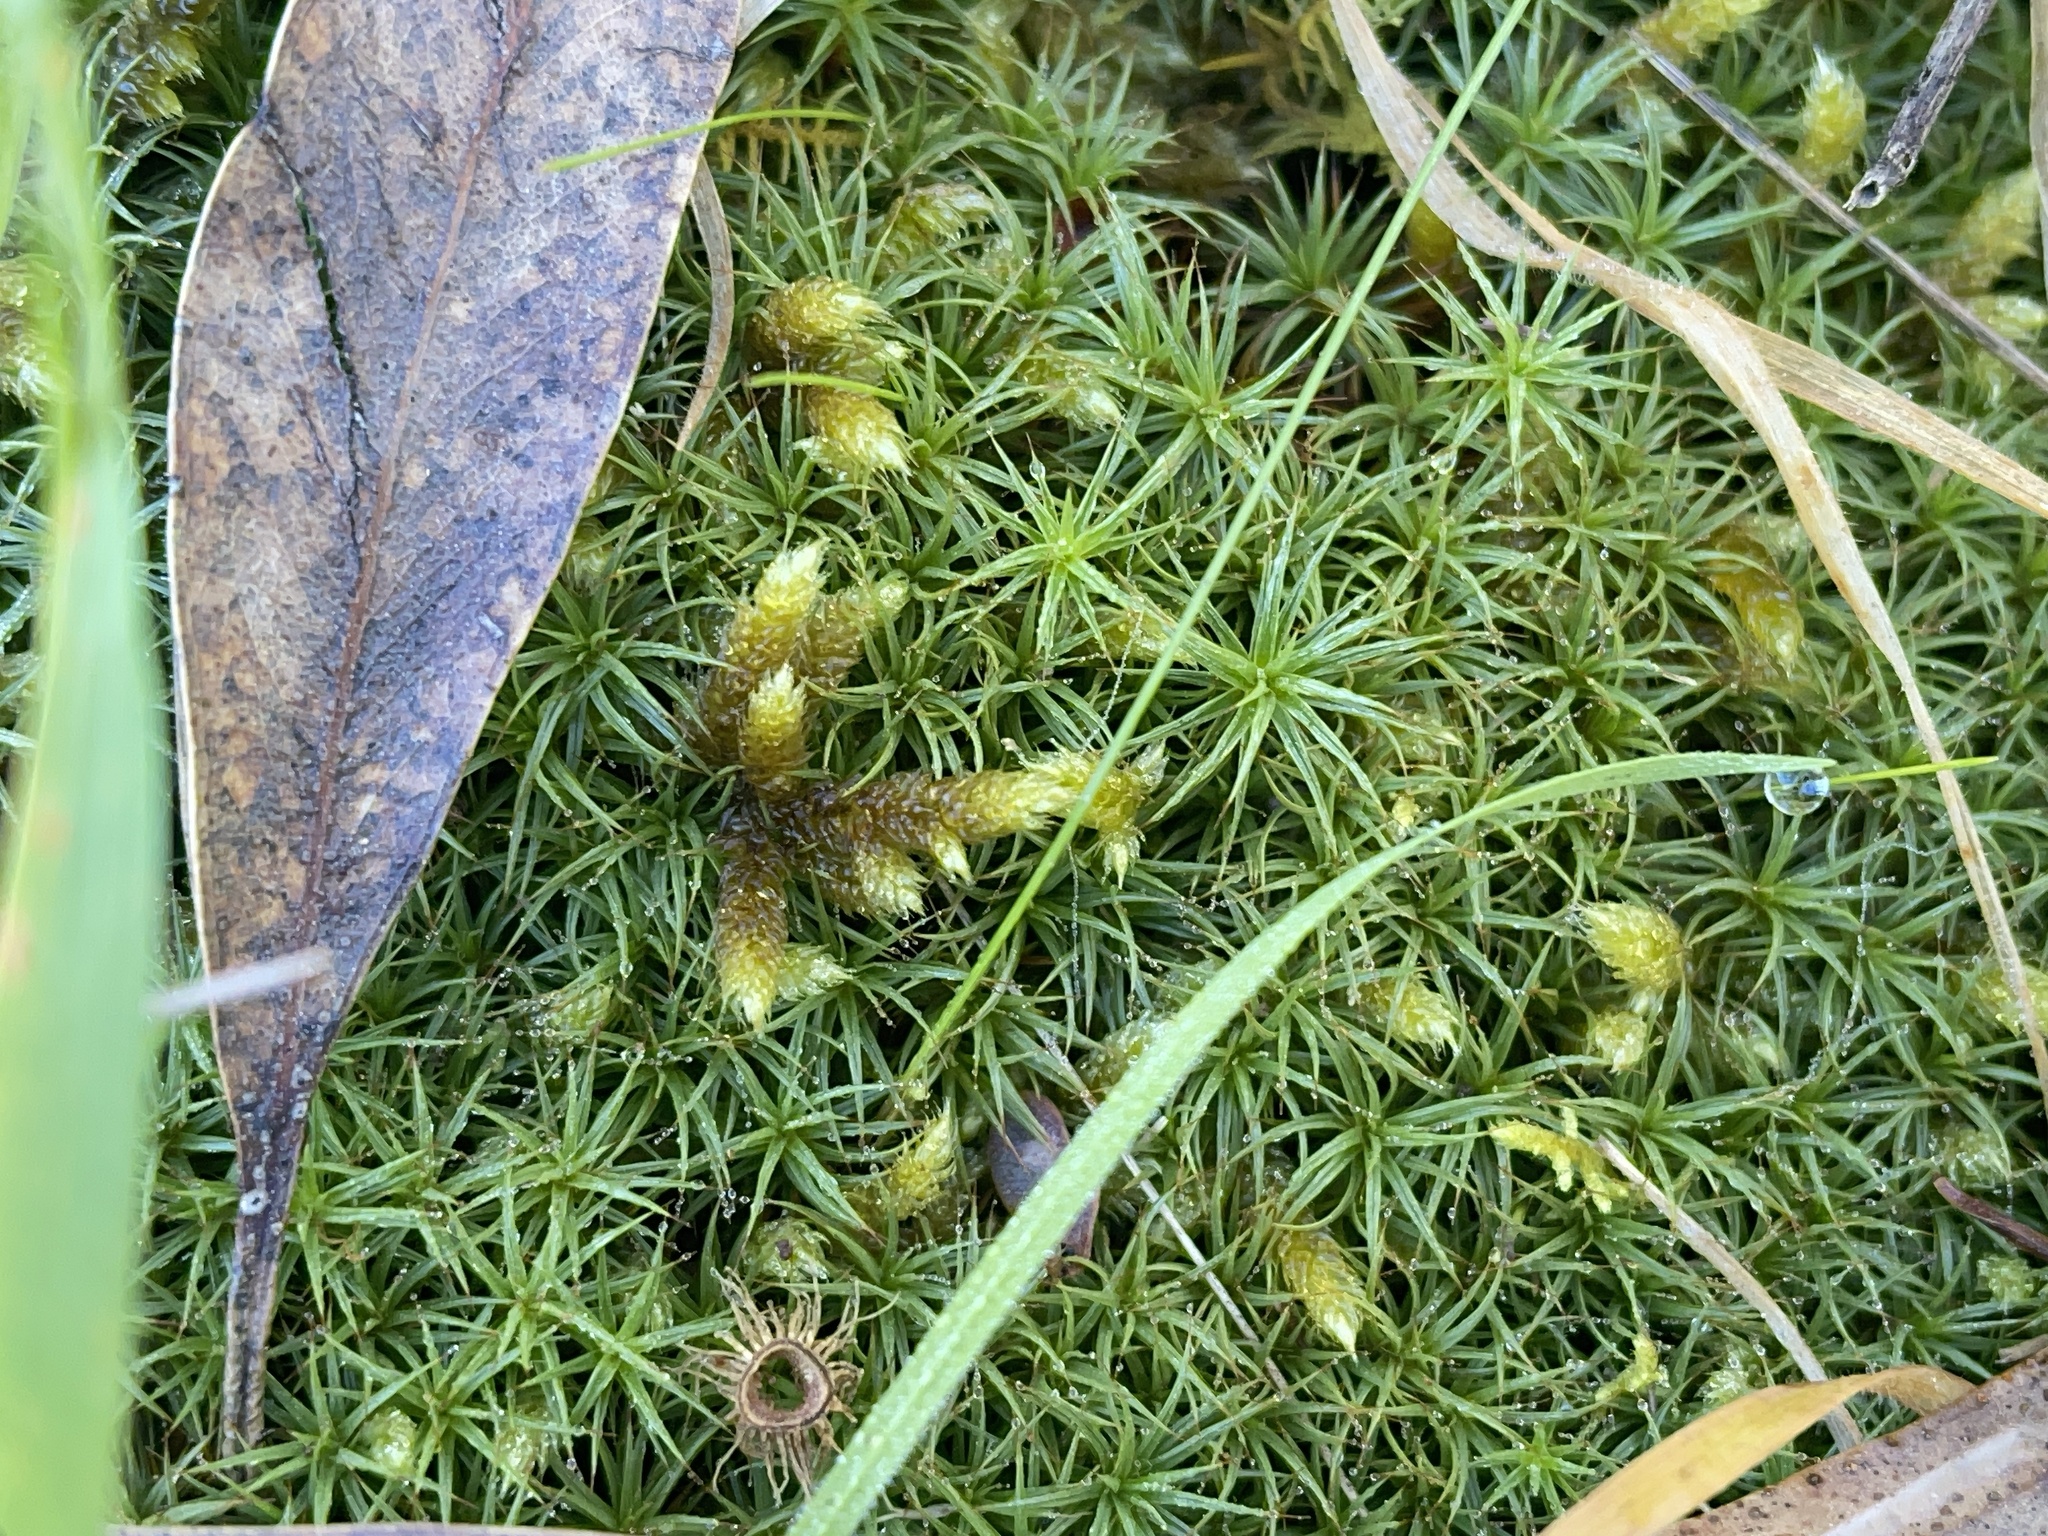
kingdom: Plantae
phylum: Bryophyta
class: Polytrichopsida
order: Polytrichales
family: Polytrichaceae
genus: Polytrichum
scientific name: Polytrichum juniperinum
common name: Juniper haircap moss
